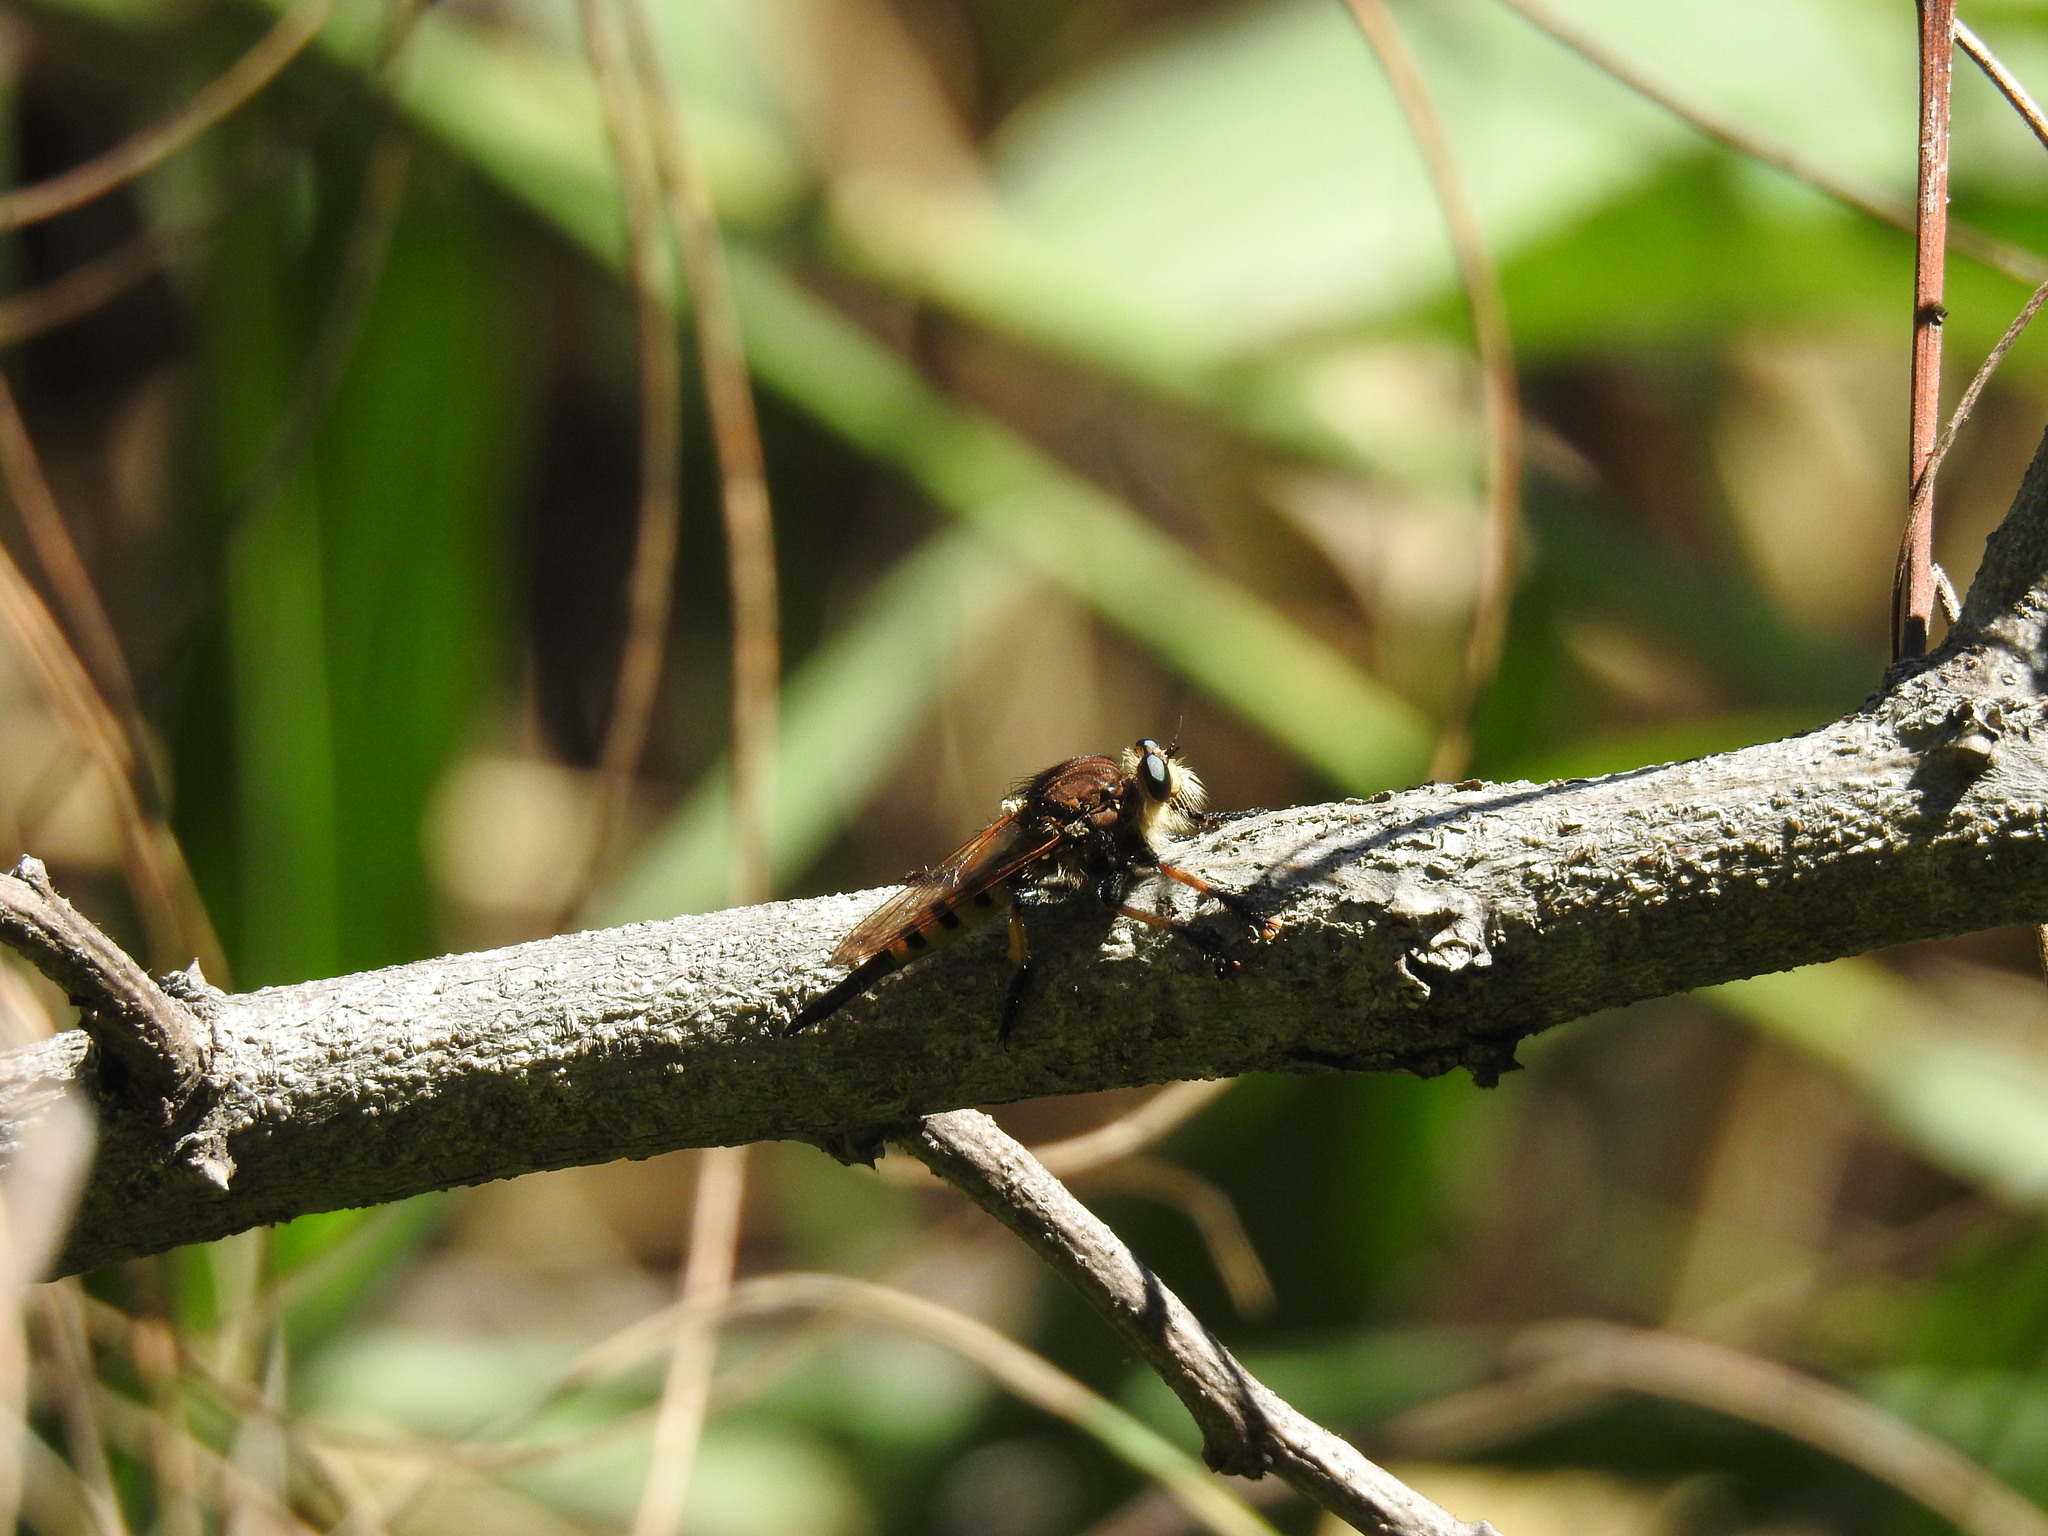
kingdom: Animalia
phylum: Arthropoda
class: Insecta
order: Diptera
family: Asilidae
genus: Promachus
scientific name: Promachus rufipes
